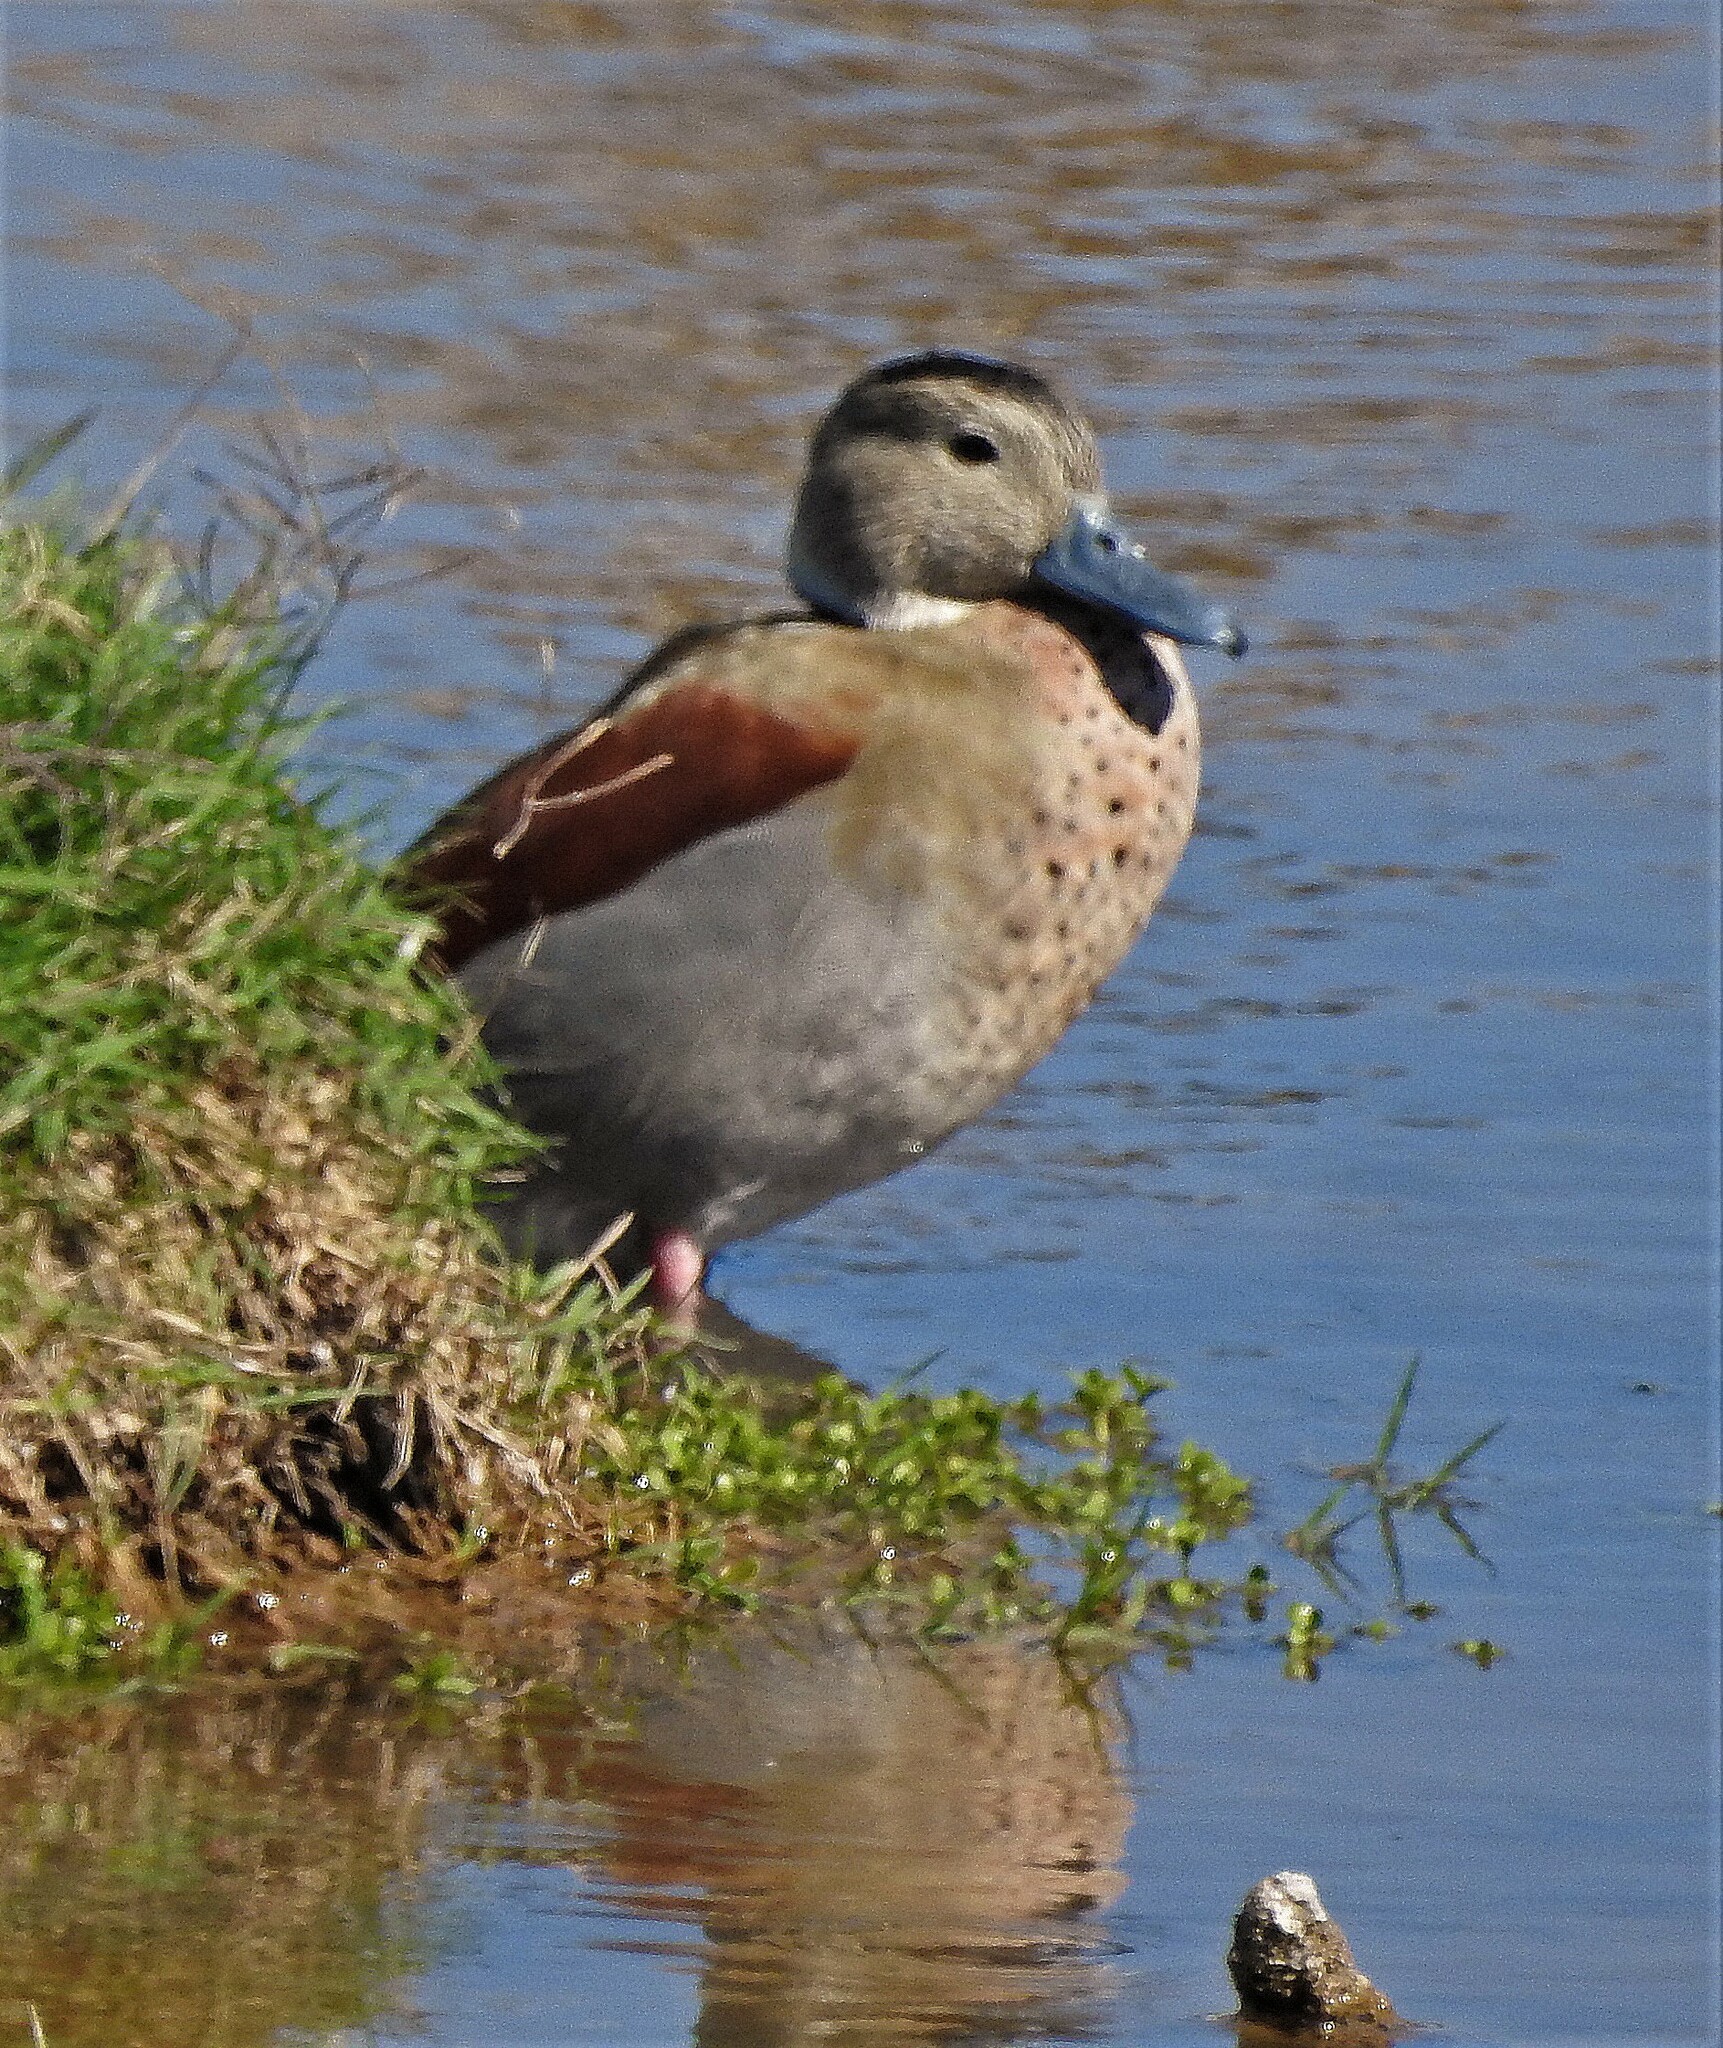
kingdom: Animalia
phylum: Chordata
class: Aves
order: Anseriformes
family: Anatidae
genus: Callonetta
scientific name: Callonetta leucophrys
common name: Ringed teal
